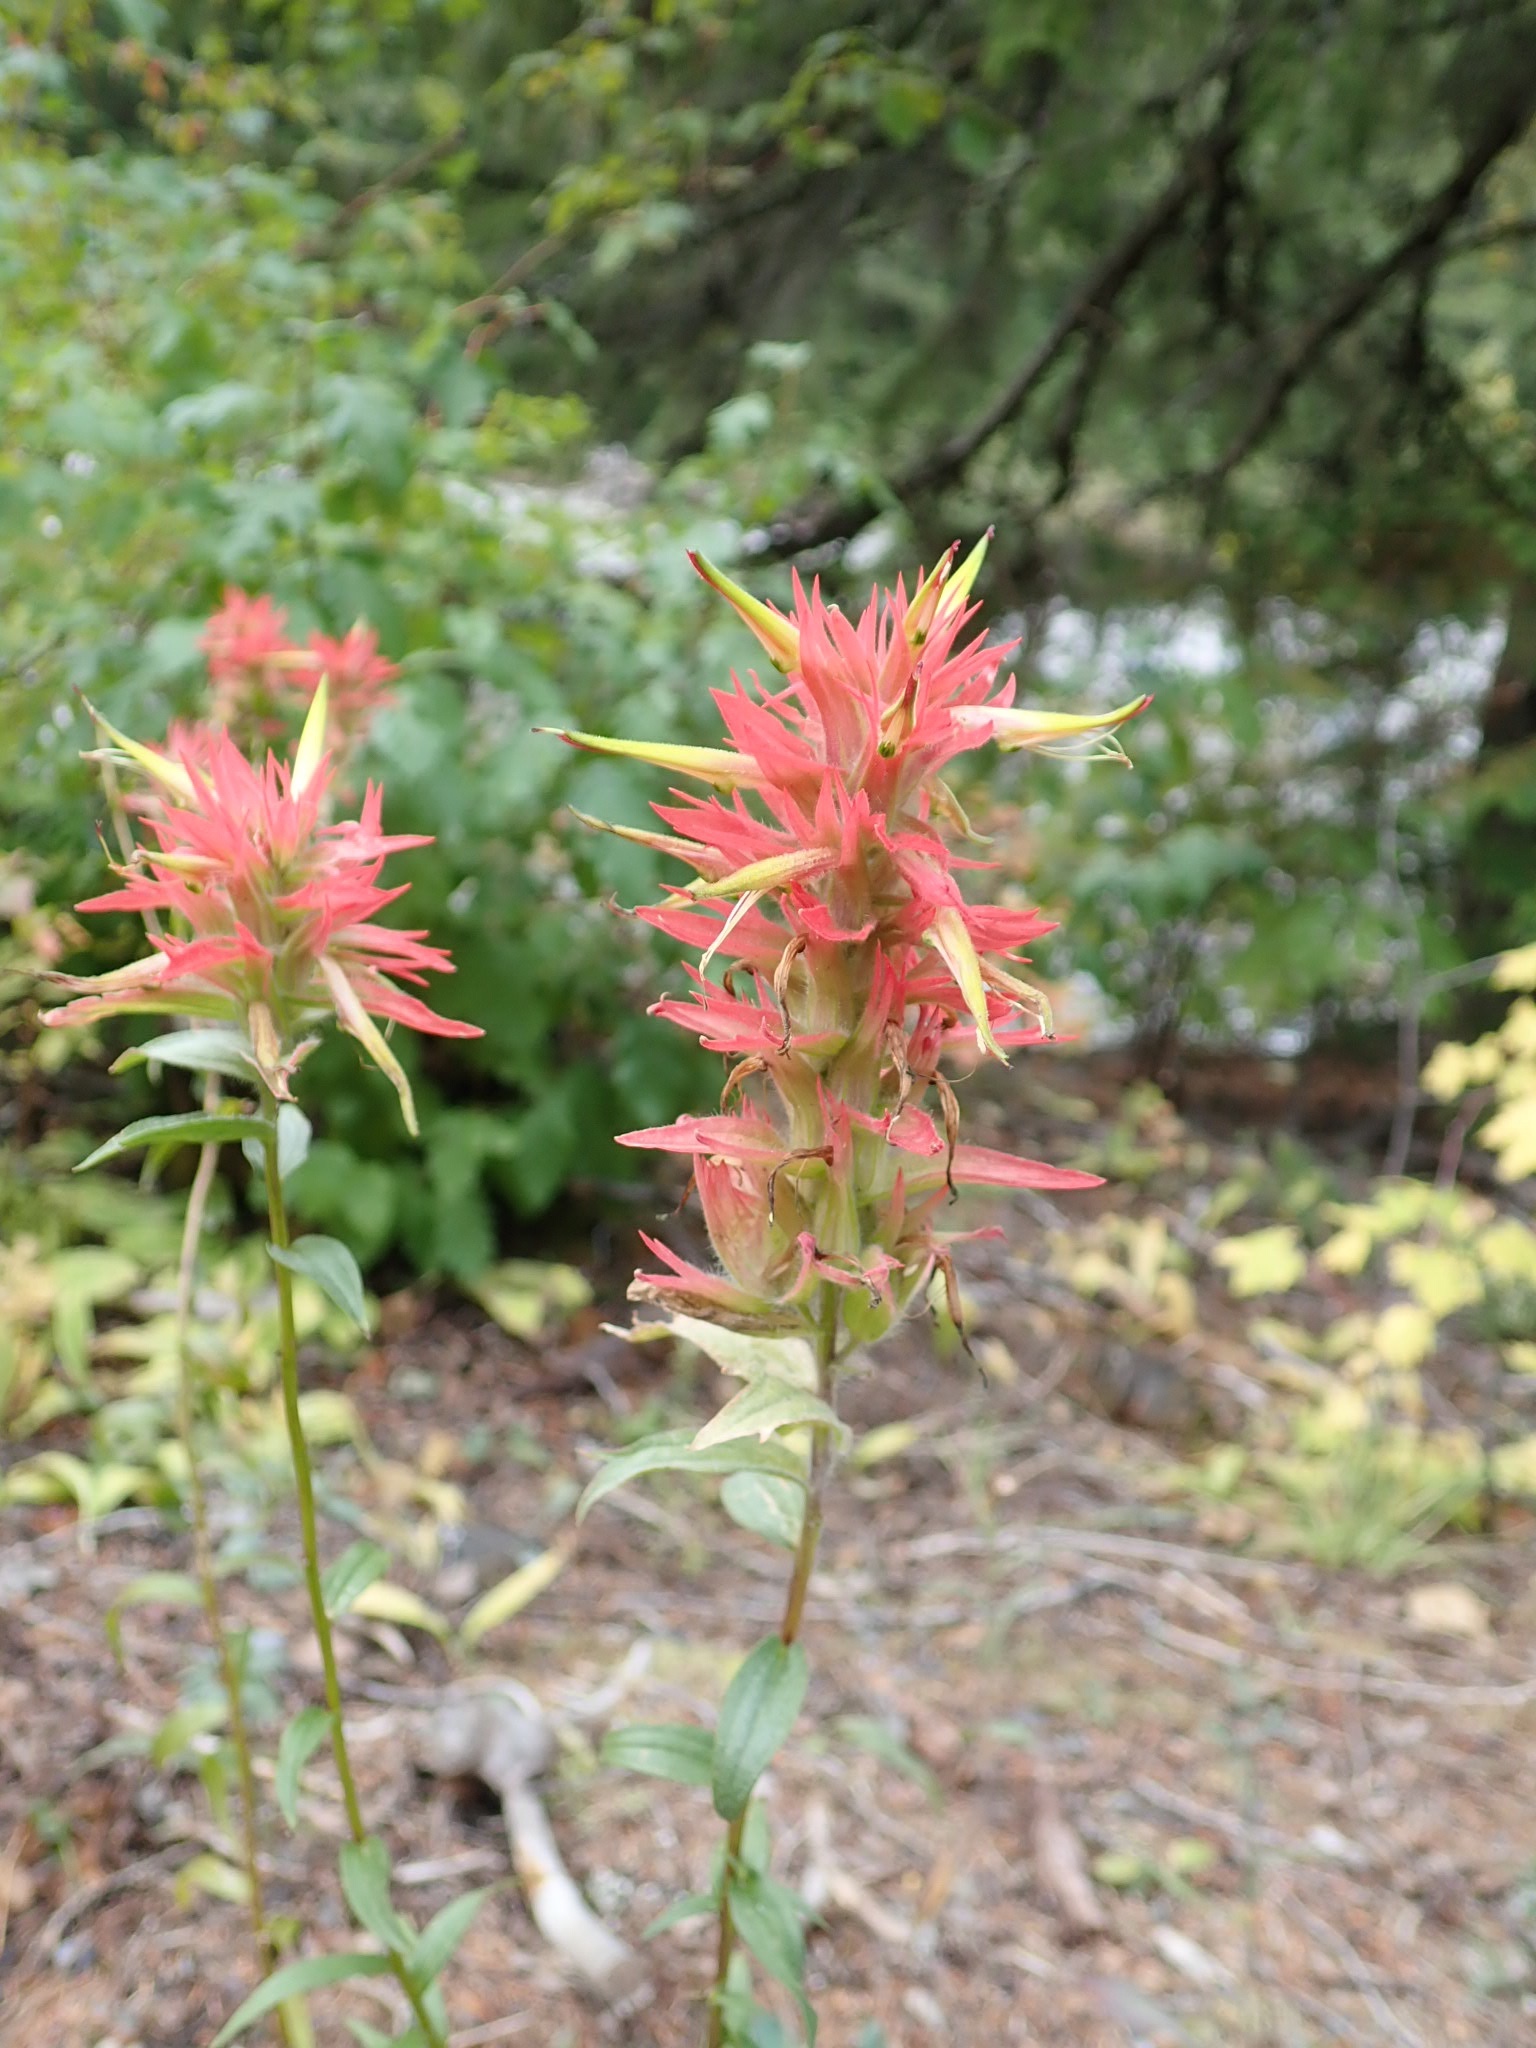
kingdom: Plantae
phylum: Tracheophyta
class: Magnoliopsida
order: Lamiales
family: Orobanchaceae
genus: Castilleja
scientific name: Castilleja miniata
